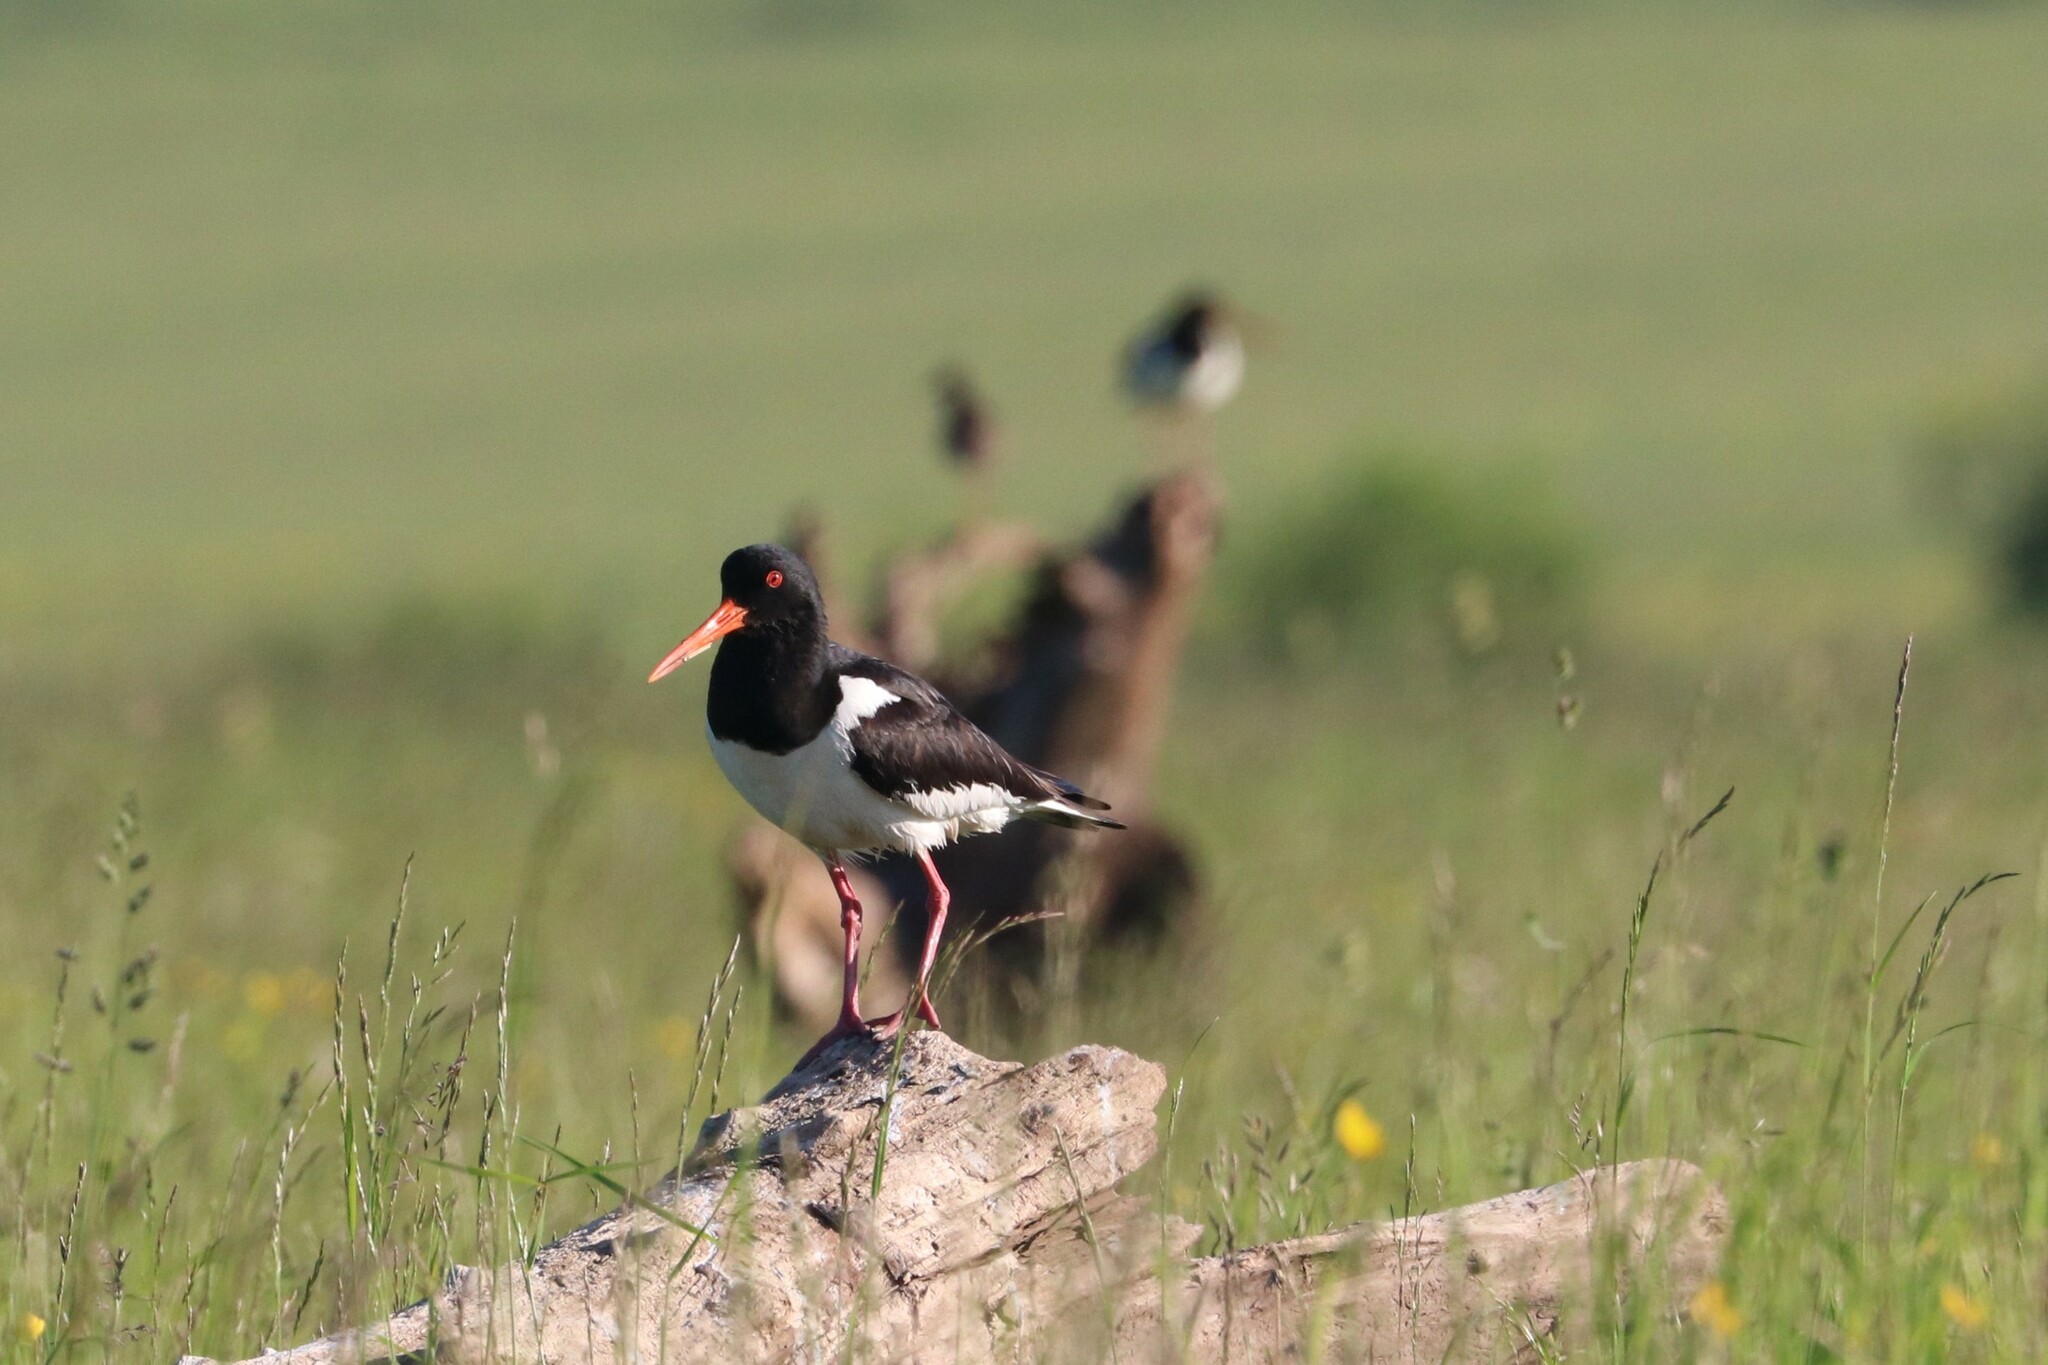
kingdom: Animalia
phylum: Chordata
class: Aves
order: Charadriiformes
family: Haematopodidae
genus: Haematopus
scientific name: Haematopus ostralegus
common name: Eurasian oystercatcher
